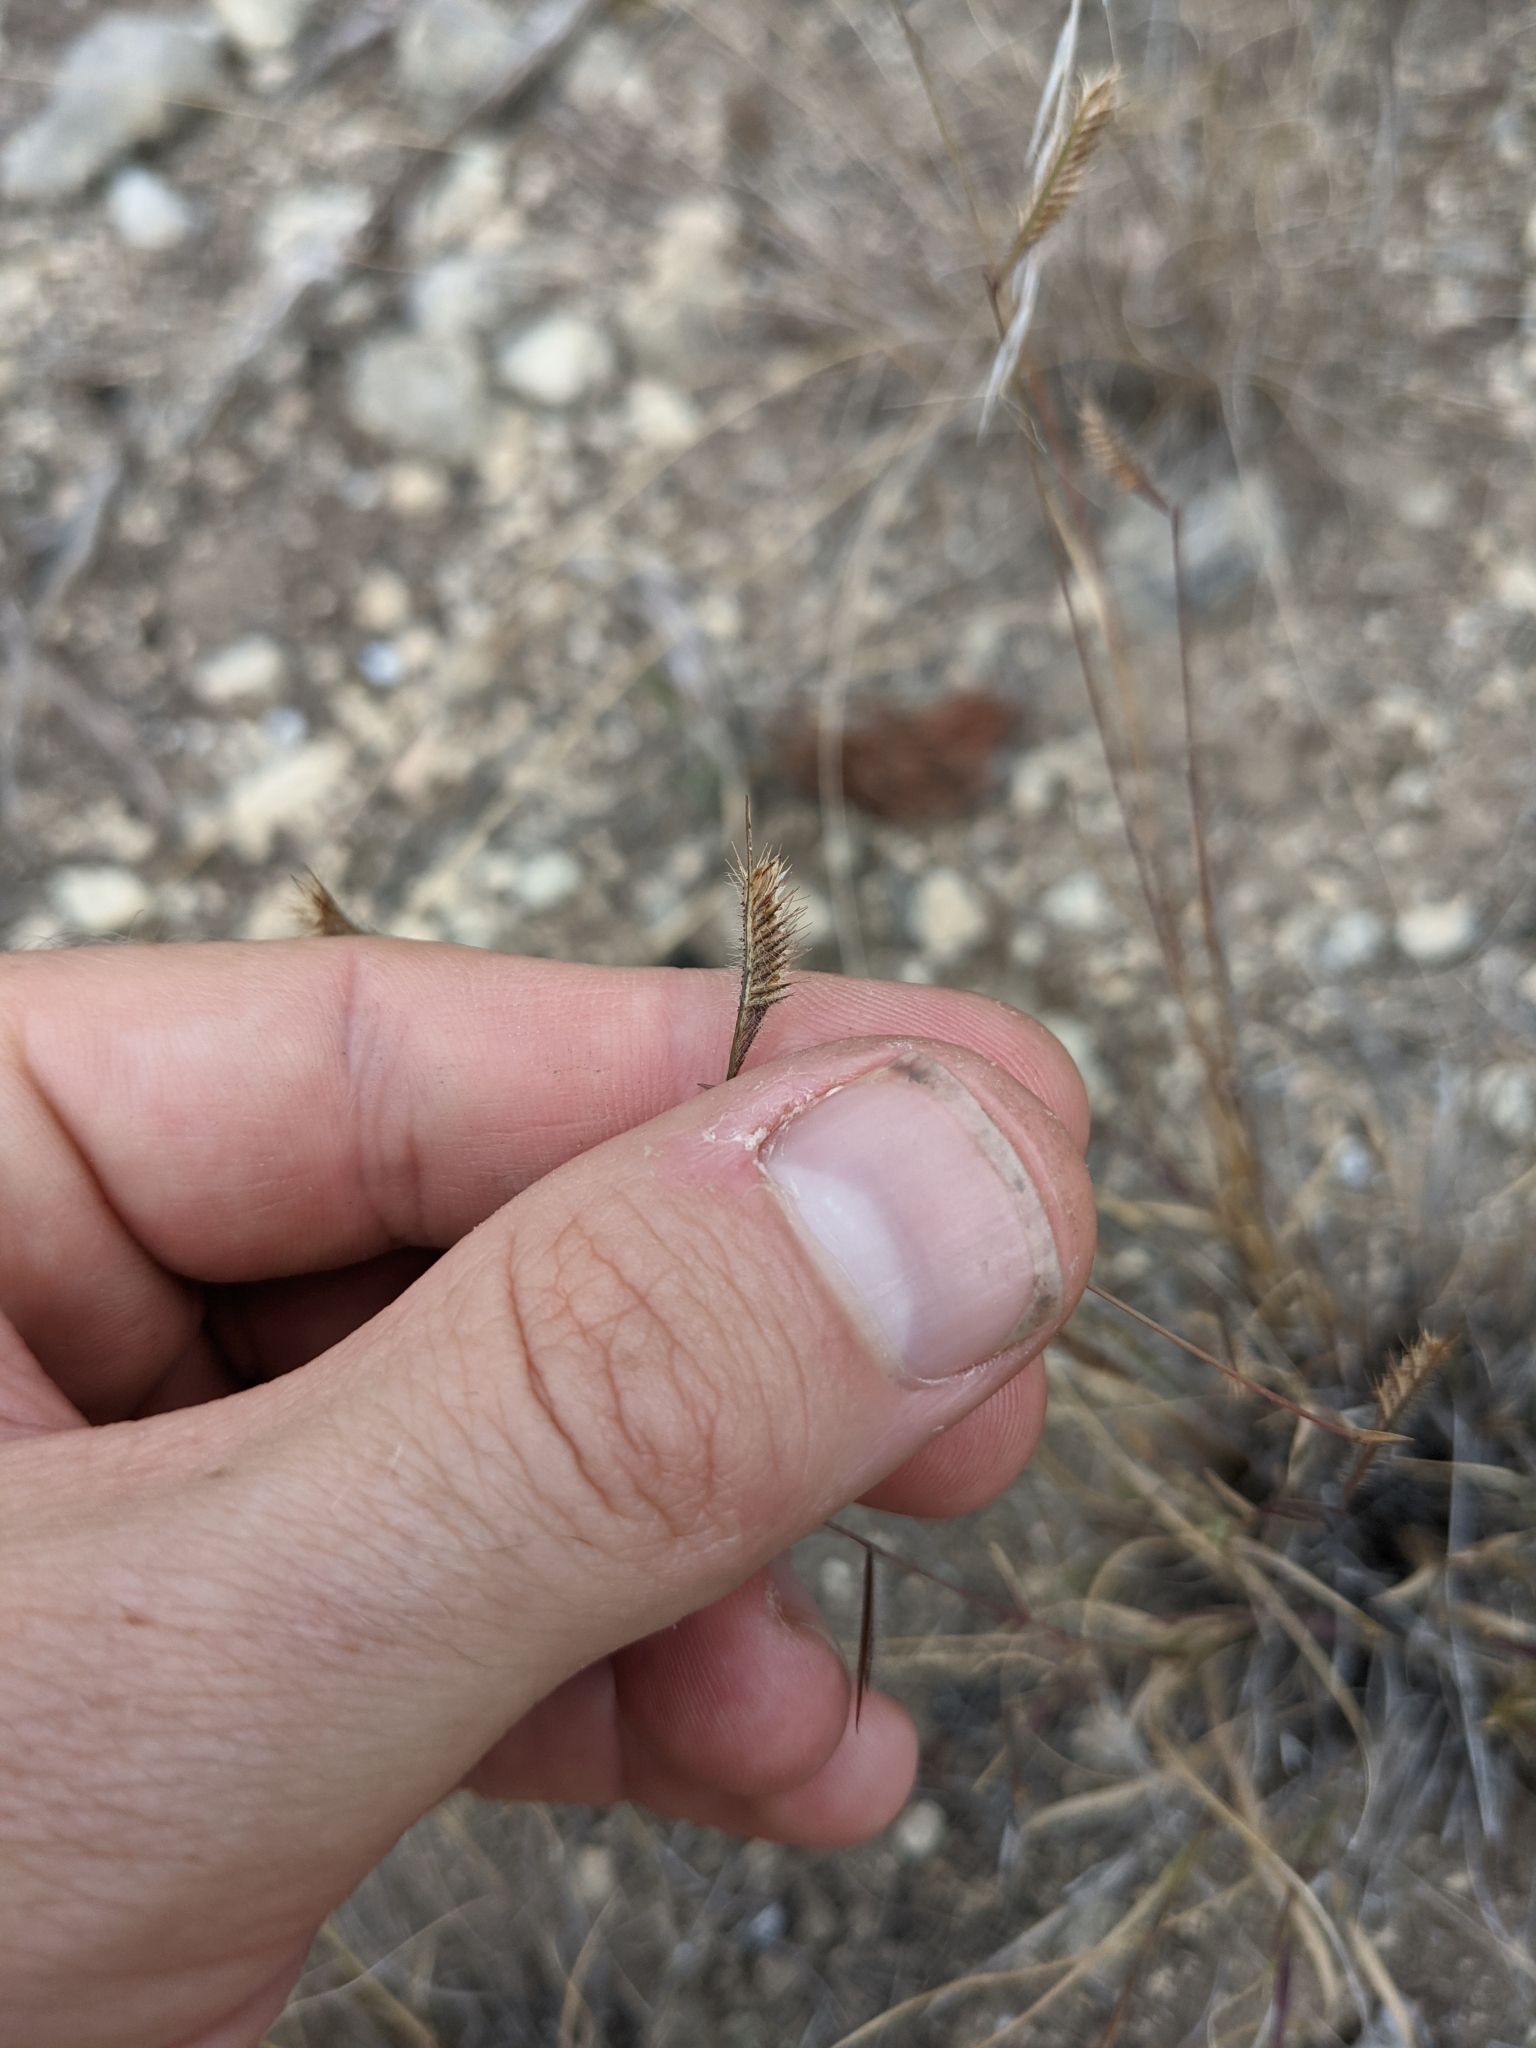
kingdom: Plantae
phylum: Tracheophyta
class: Liliopsida
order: Poales
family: Poaceae
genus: Bouteloua
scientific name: Bouteloua hirsuta
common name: Hairy grama
